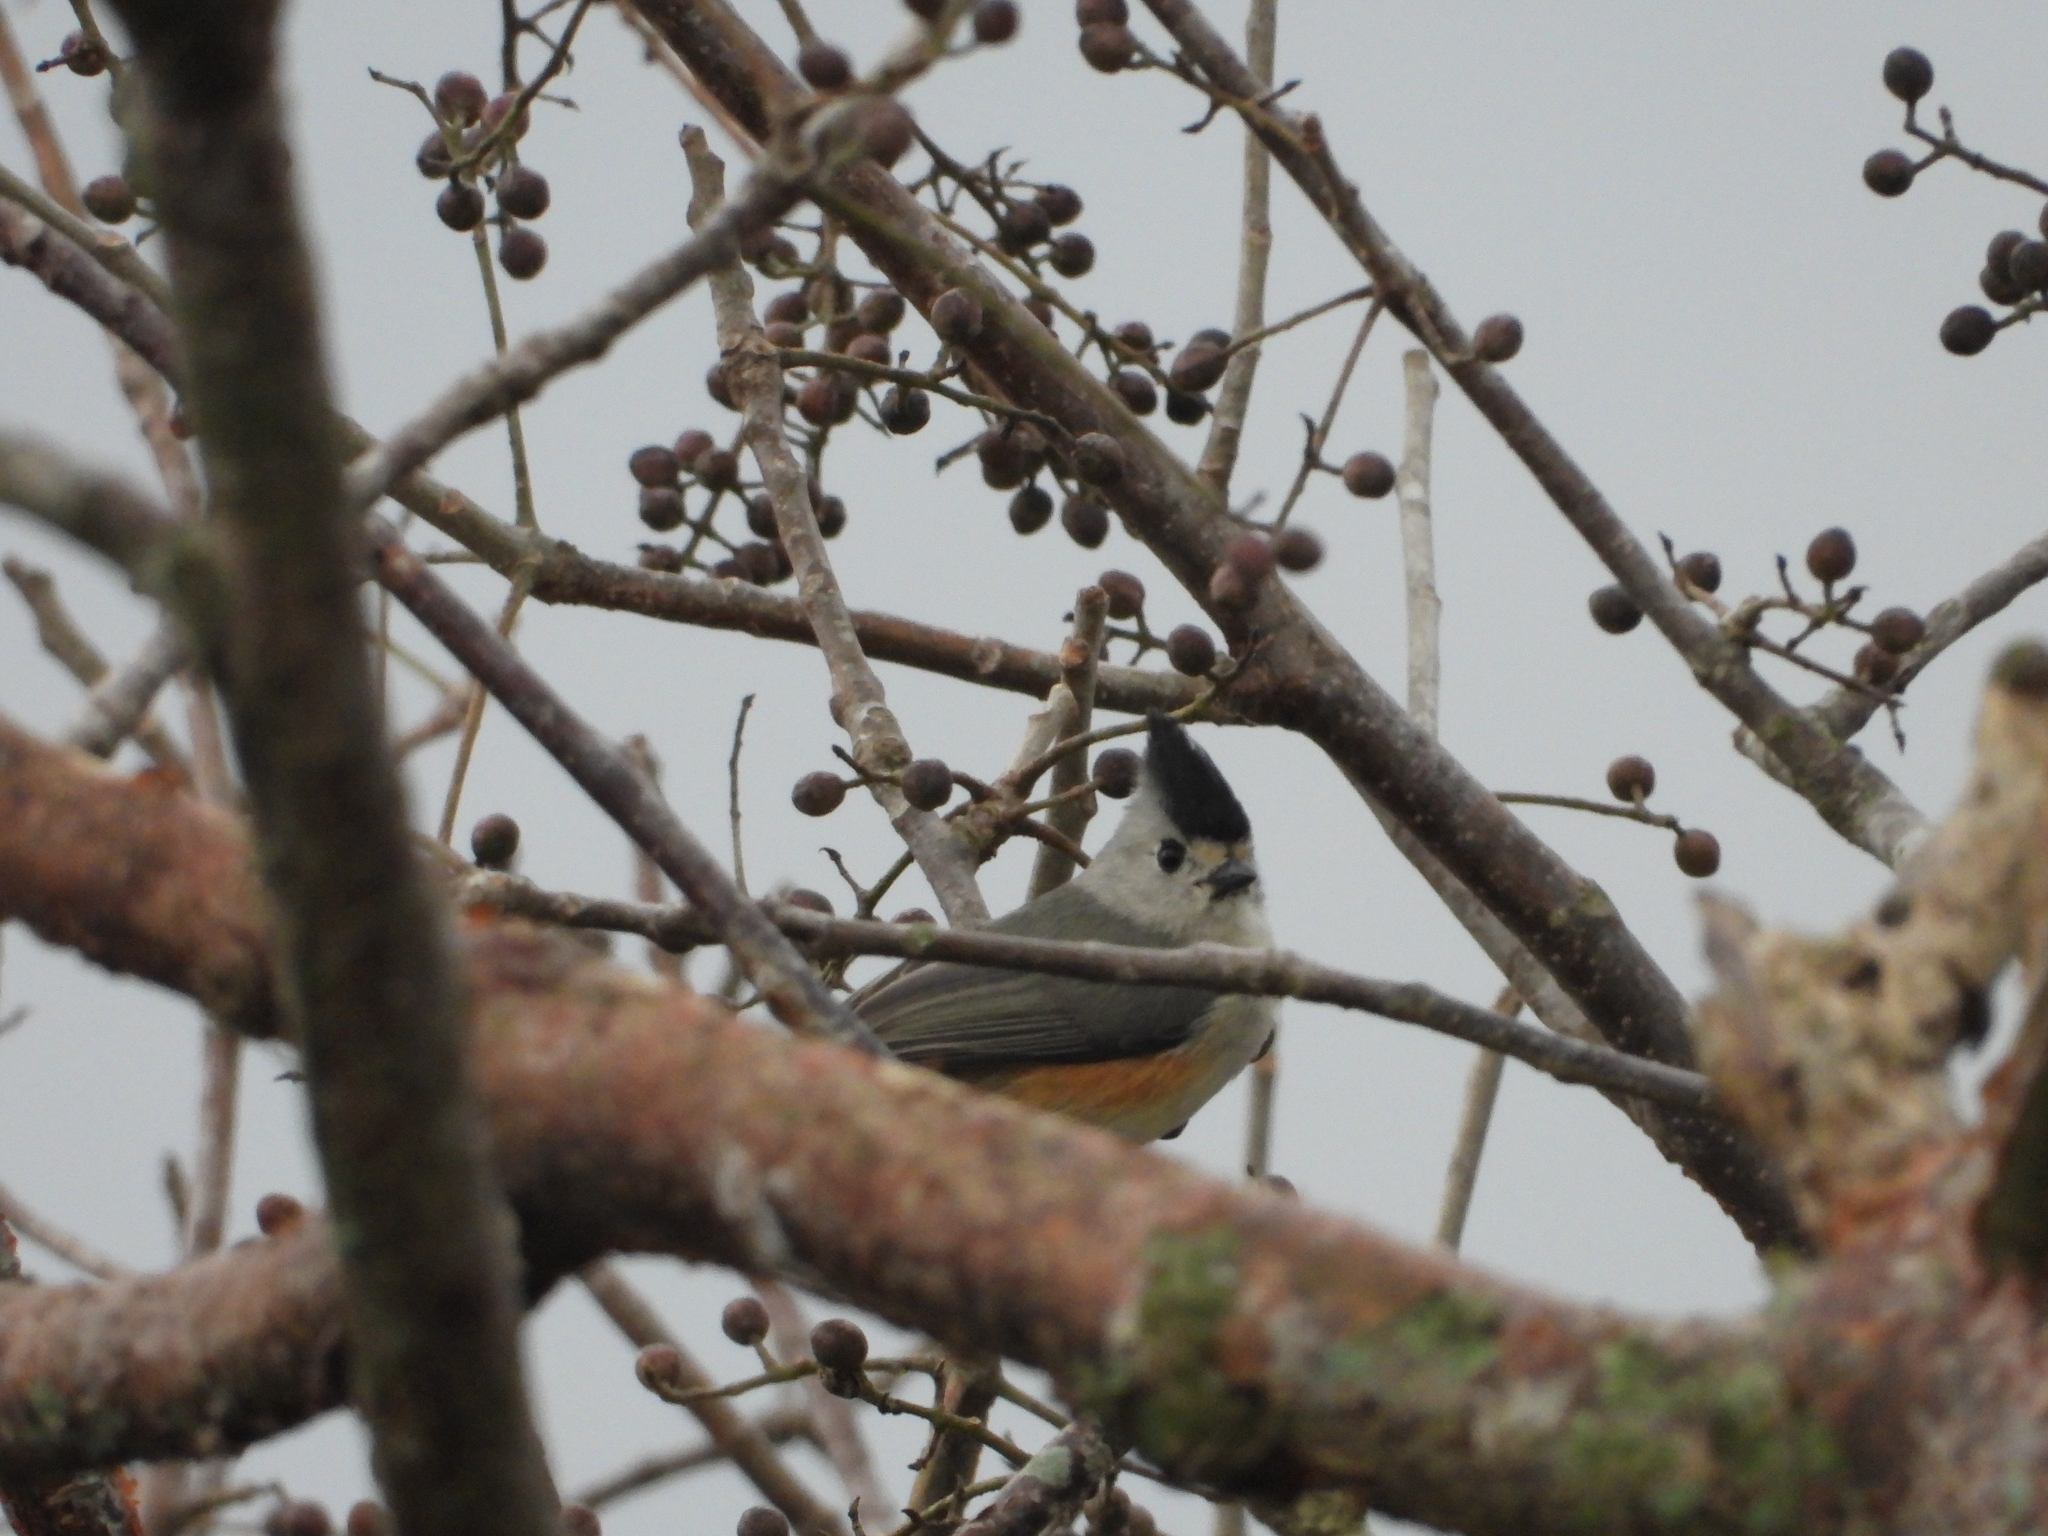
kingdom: Animalia
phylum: Chordata
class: Aves
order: Passeriformes
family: Paridae
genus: Baeolophus
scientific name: Baeolophus atricristatus
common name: Black-crested titmouse
